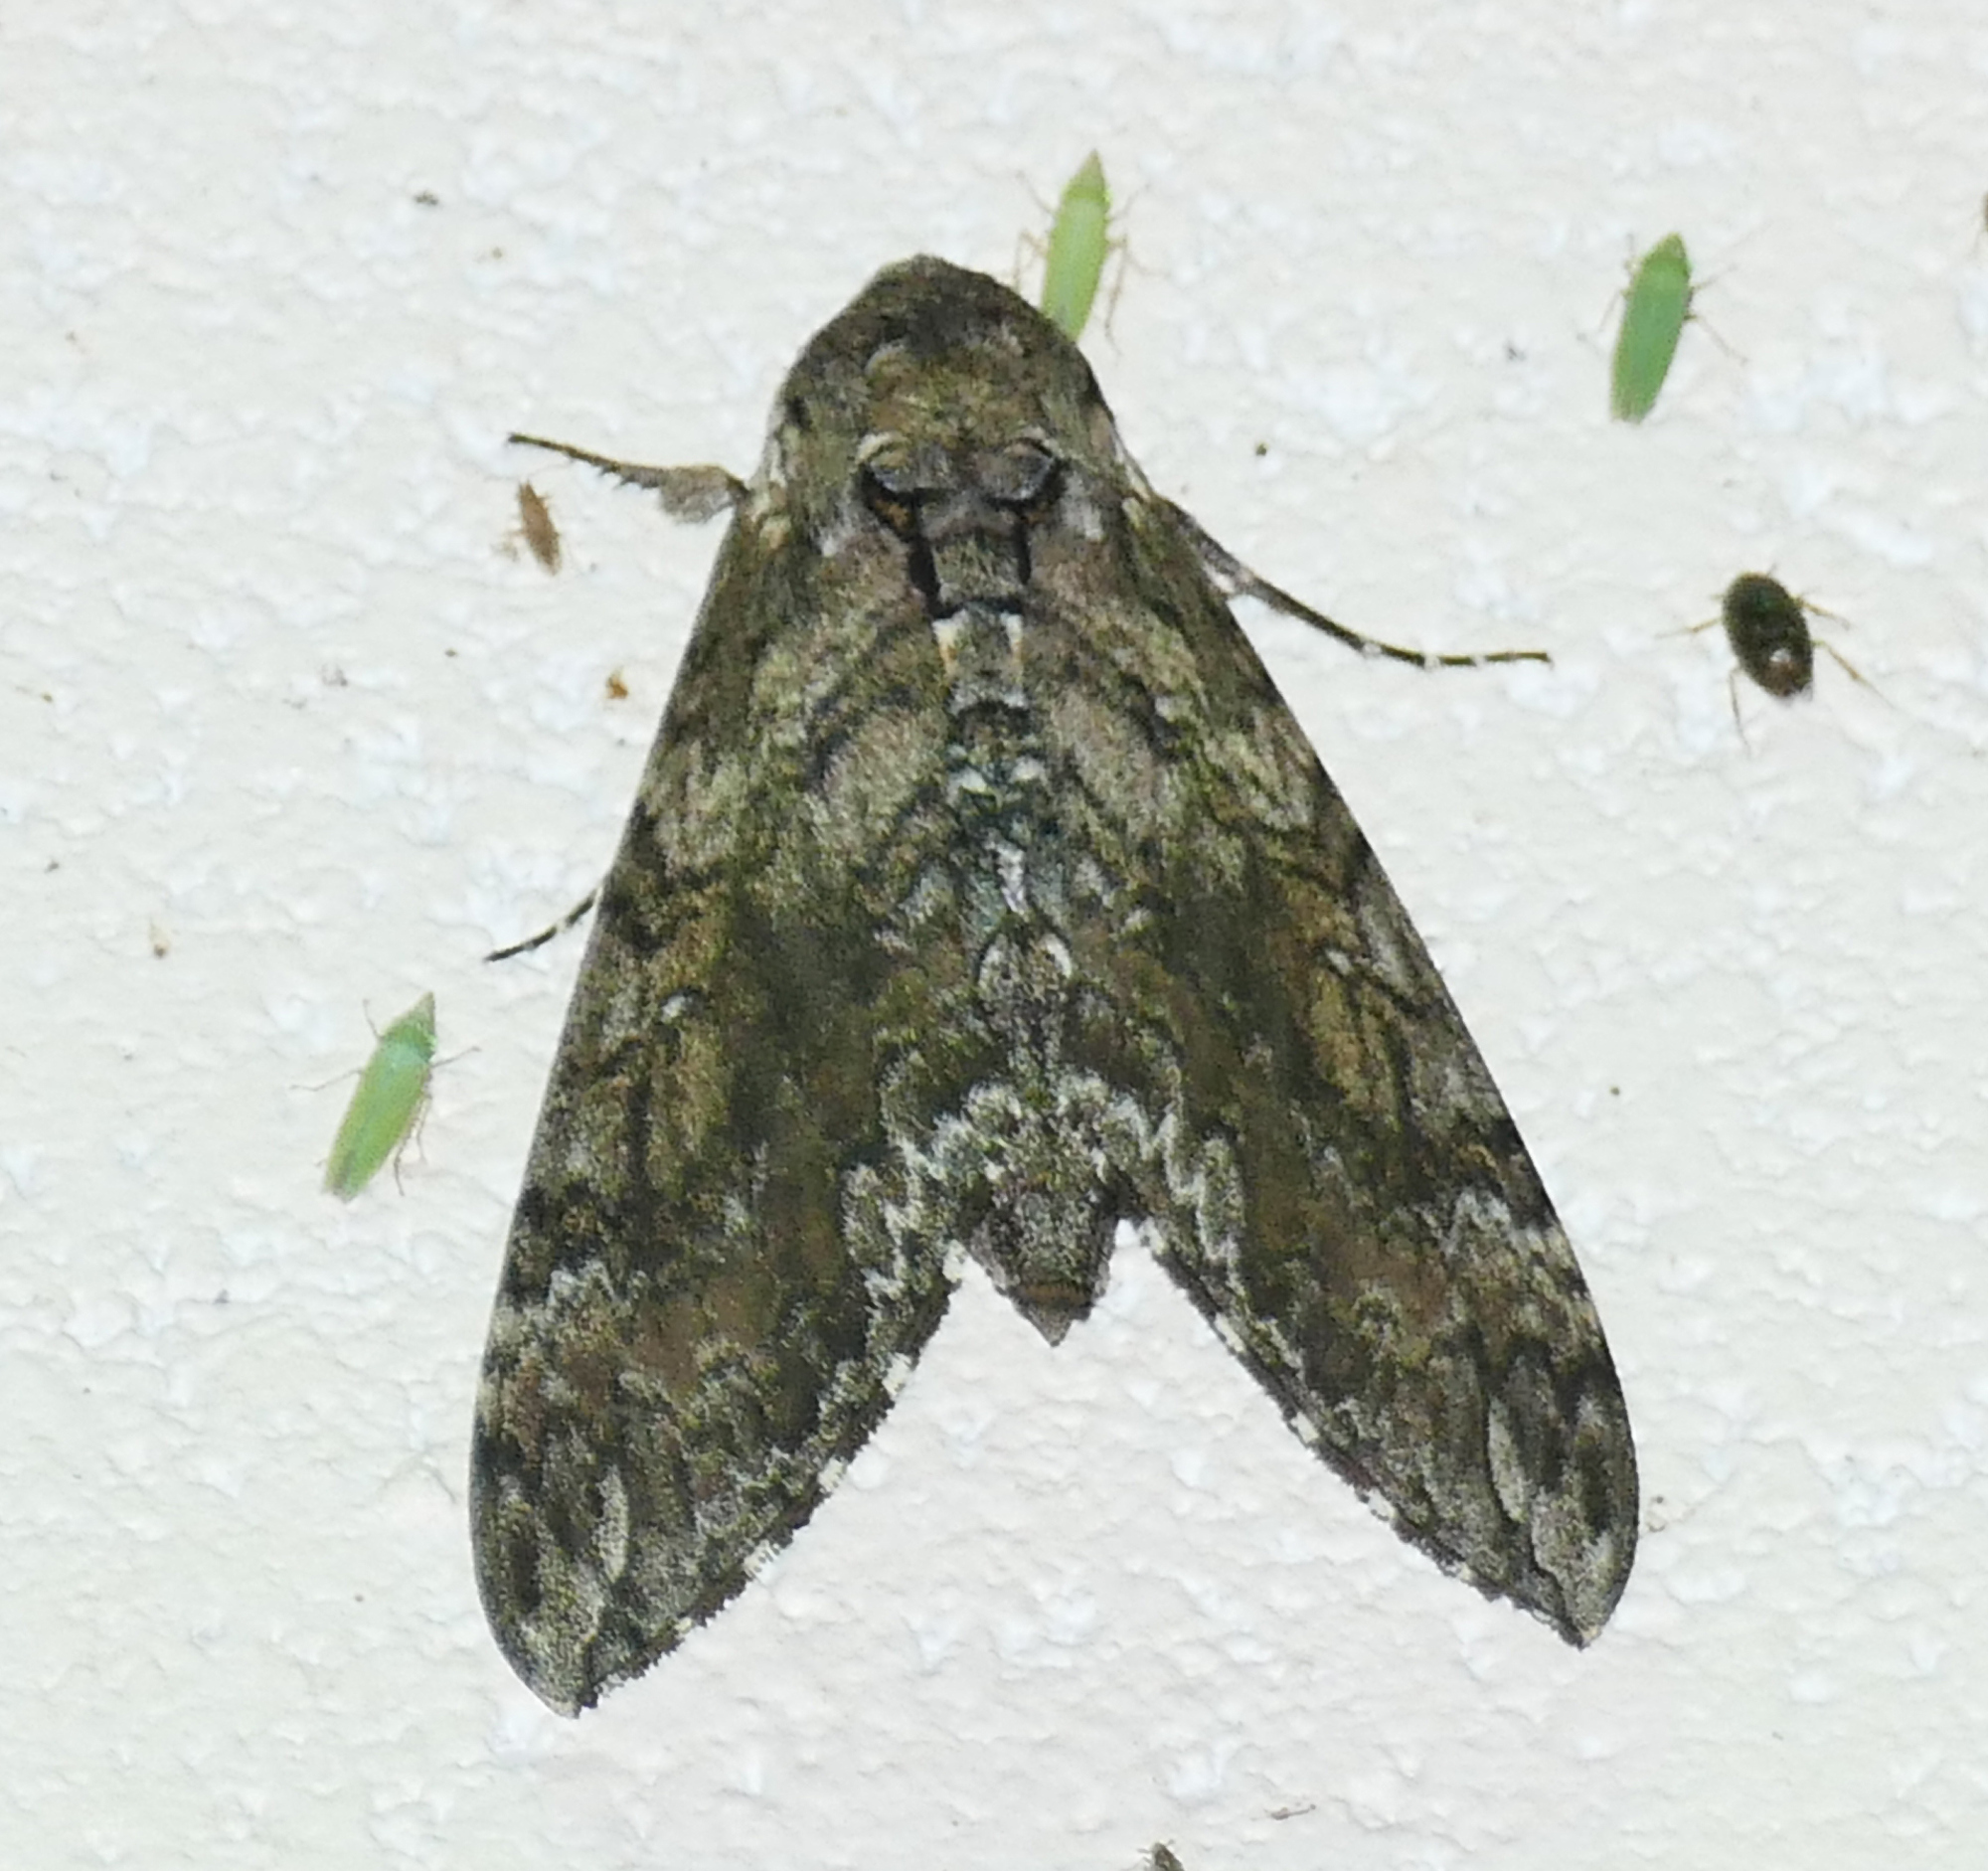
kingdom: Animalia
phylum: Arthropoda
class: Insecta
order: Lepidoptera
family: Sphingidae
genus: Manduca
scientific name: Manduca sexta
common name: Carolina sphinx
